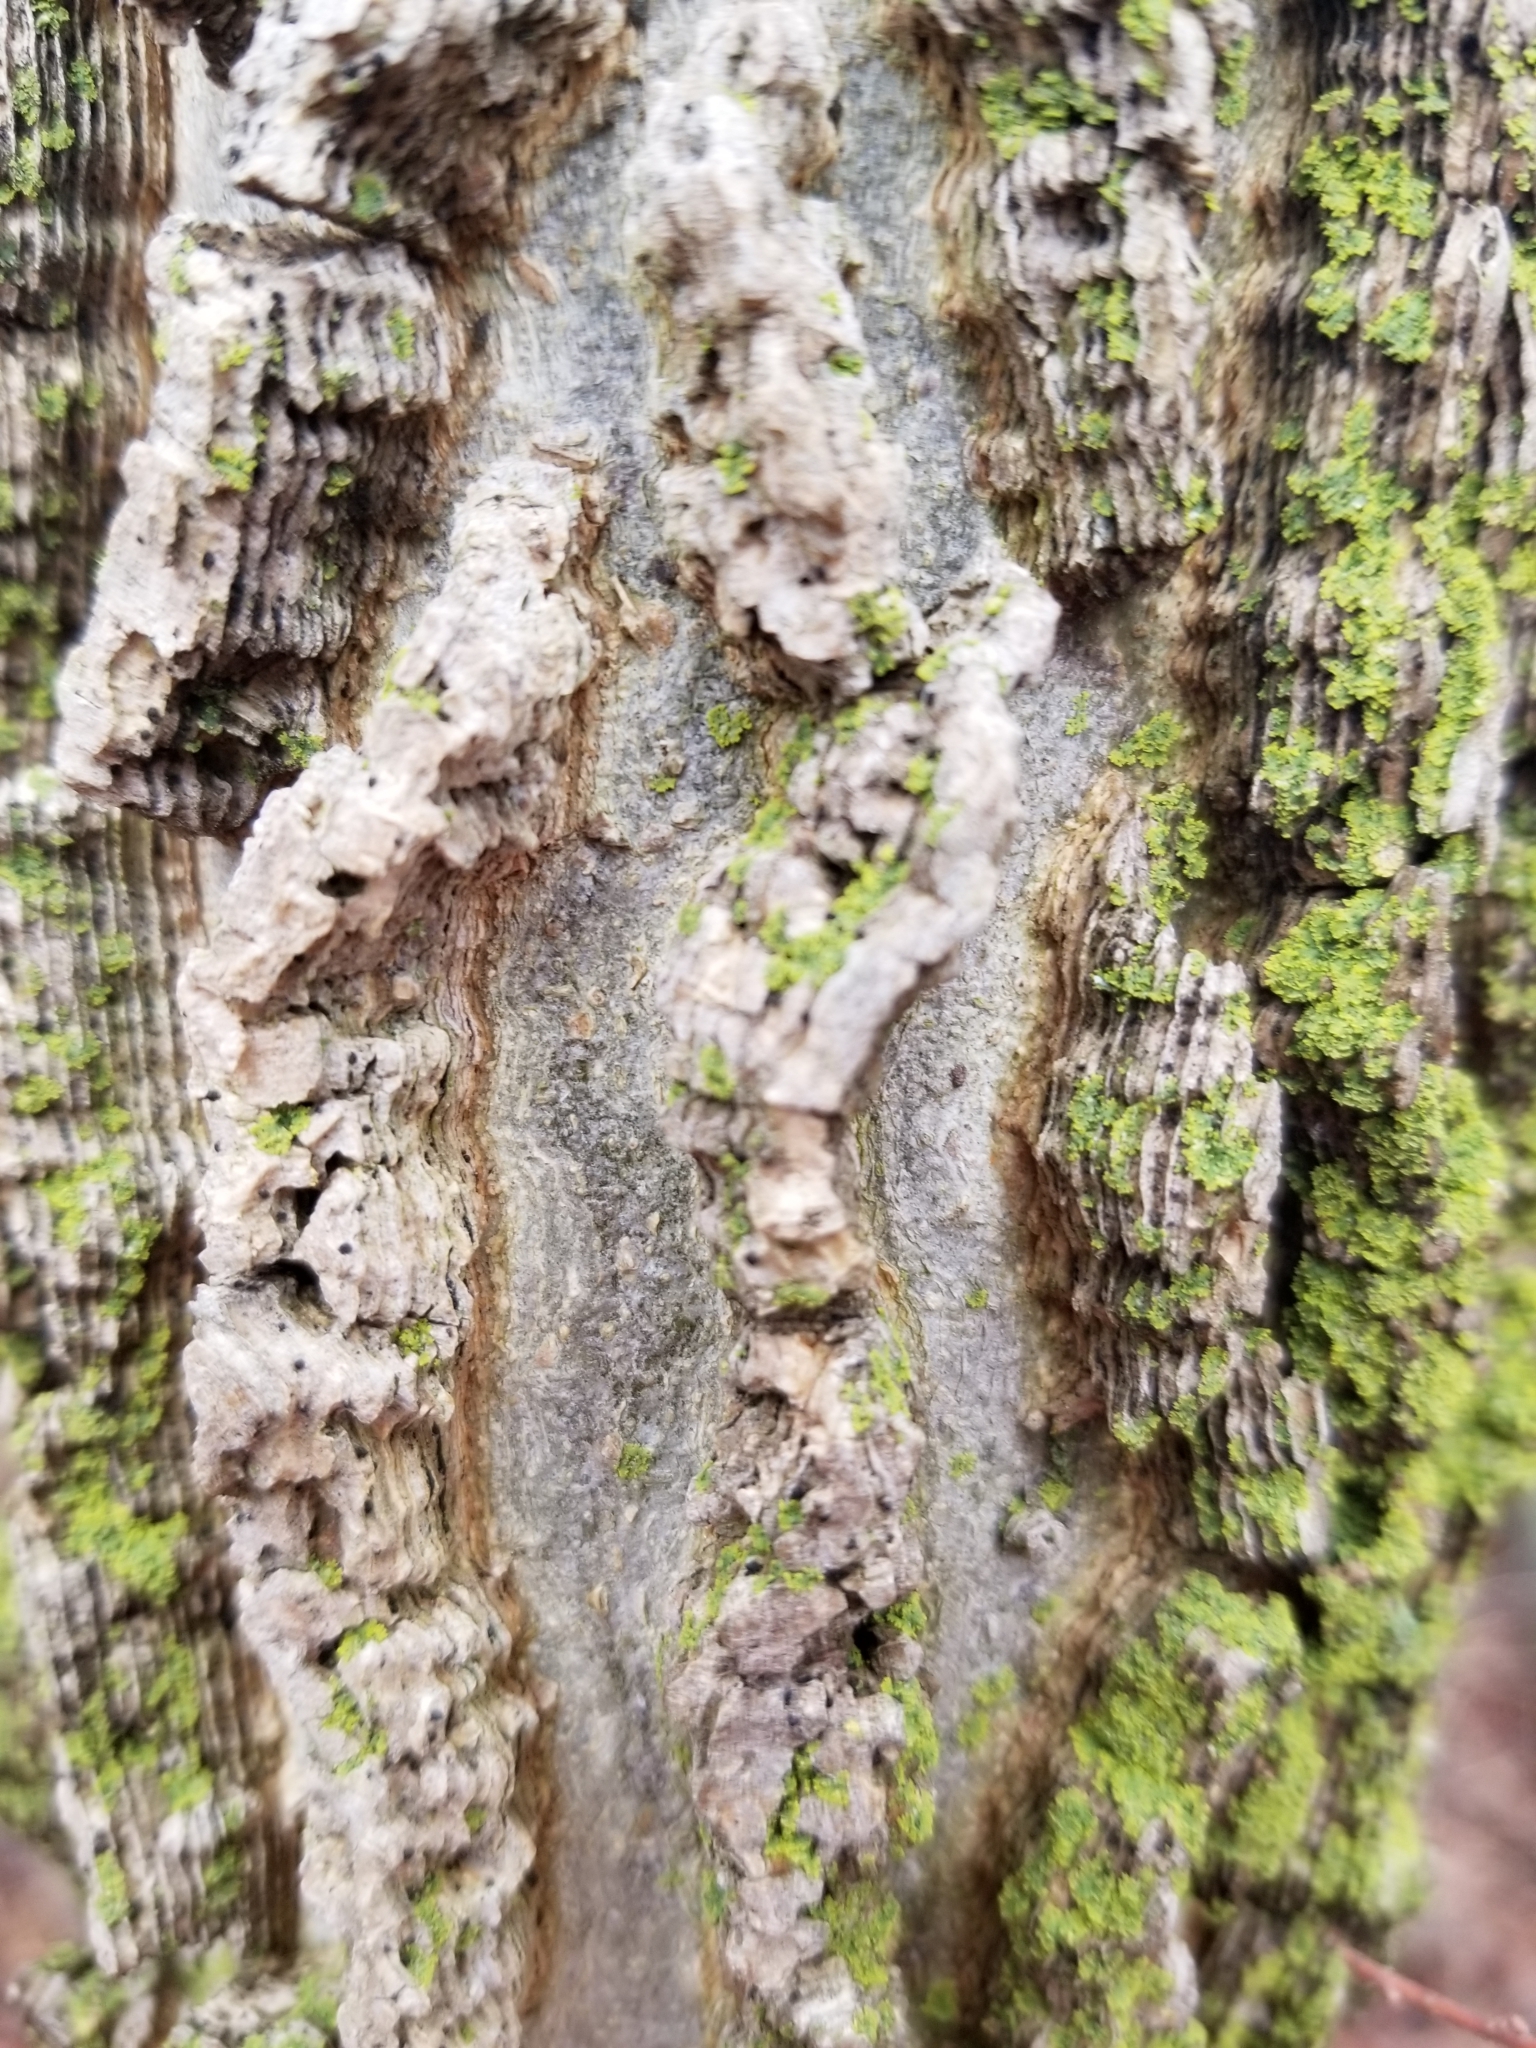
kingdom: Plantae
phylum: Tracheophyta
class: Magnoliopsida
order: Rosales
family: Cannabaceae
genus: Celtis
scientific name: Celtis occidentalis
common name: Common hackberry
